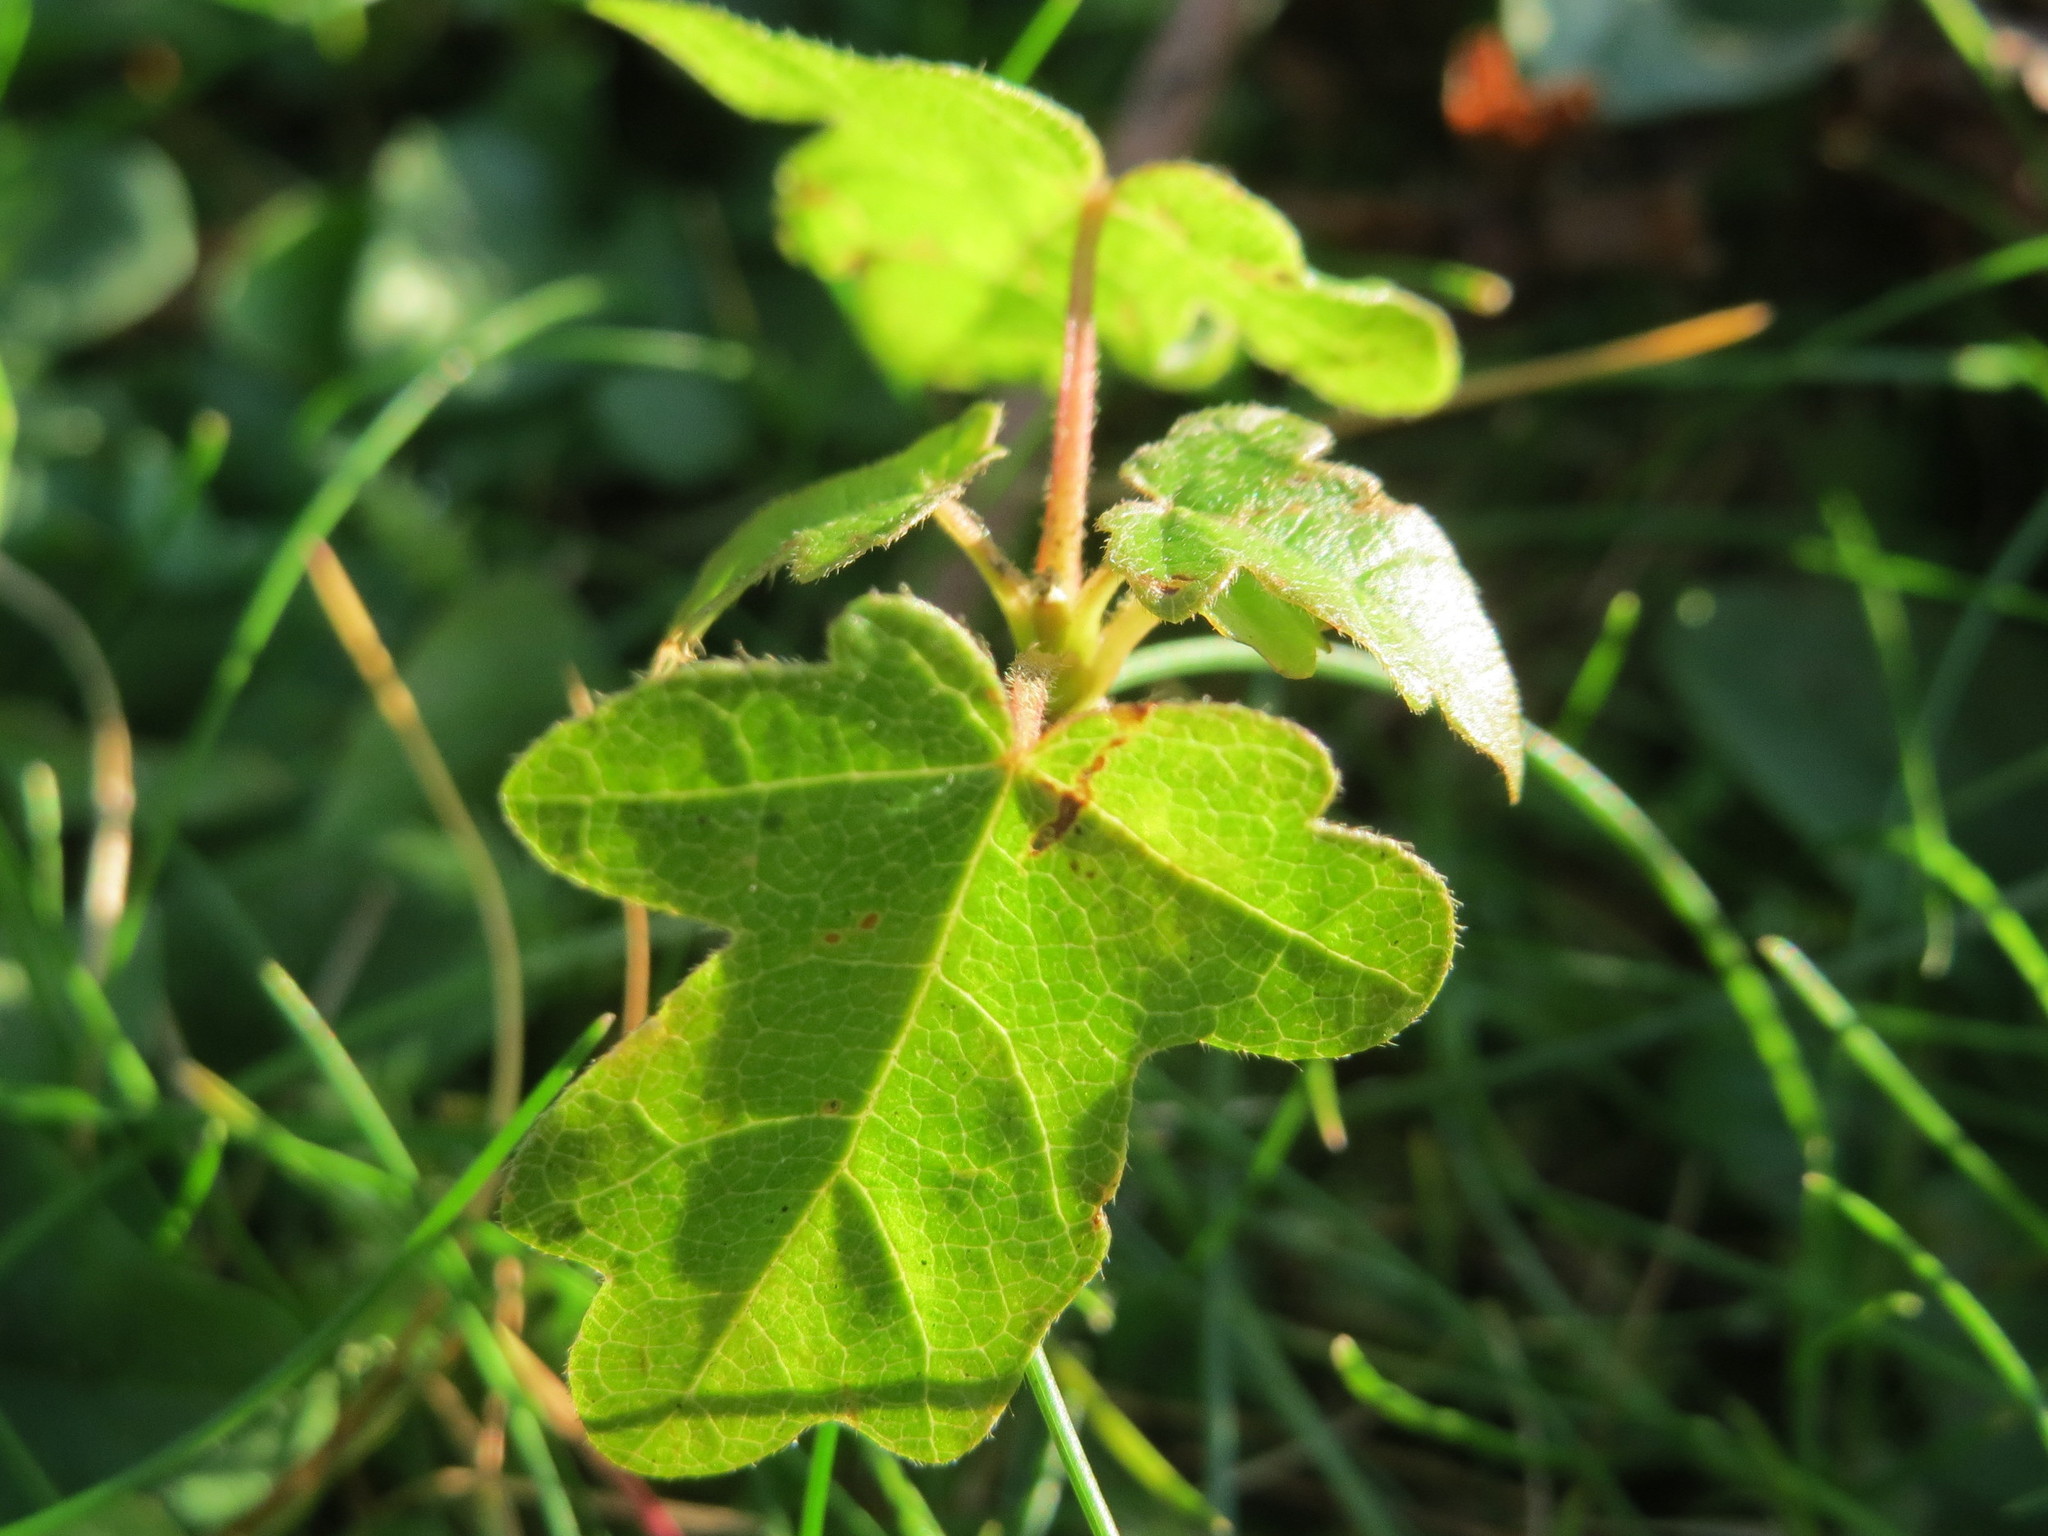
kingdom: Plantae
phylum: Tracheophyta
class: Magnoliopsida
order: Sapindales
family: Sapindaceae
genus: Acer
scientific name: Acer campestre
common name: Field maple
